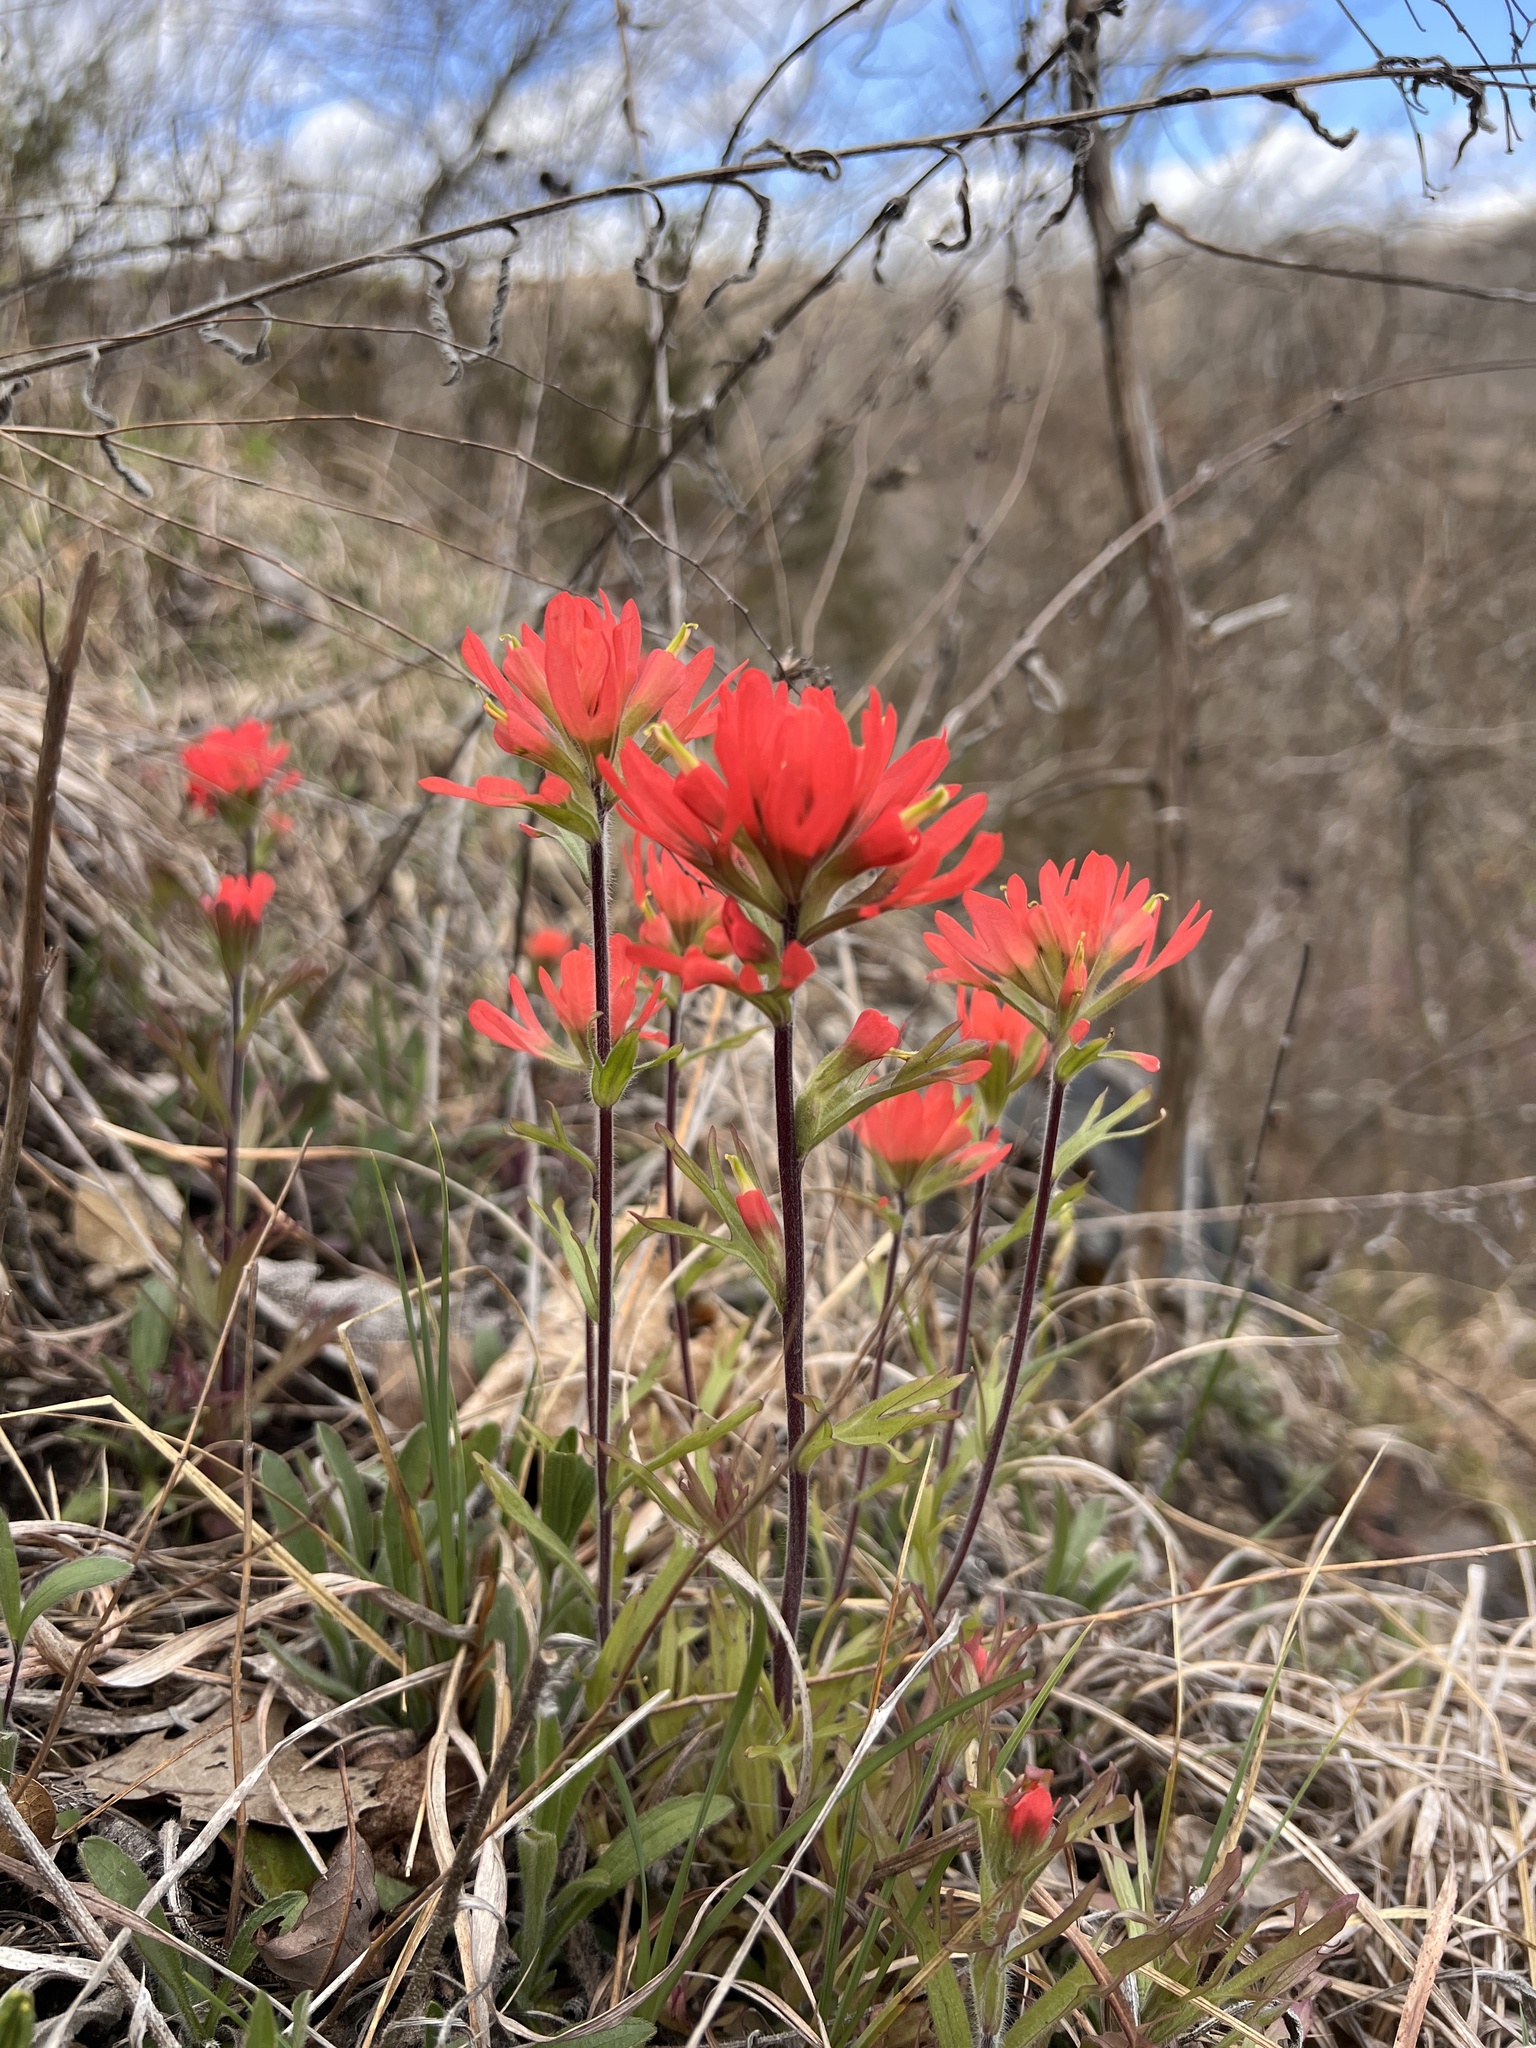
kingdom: Plantae
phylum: Tracheophyta
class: Magnoliopsida
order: Lamiales
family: Orobanchaceae
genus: Castilleja
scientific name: Castilleja coccinea
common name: Scarlet paintbrush
